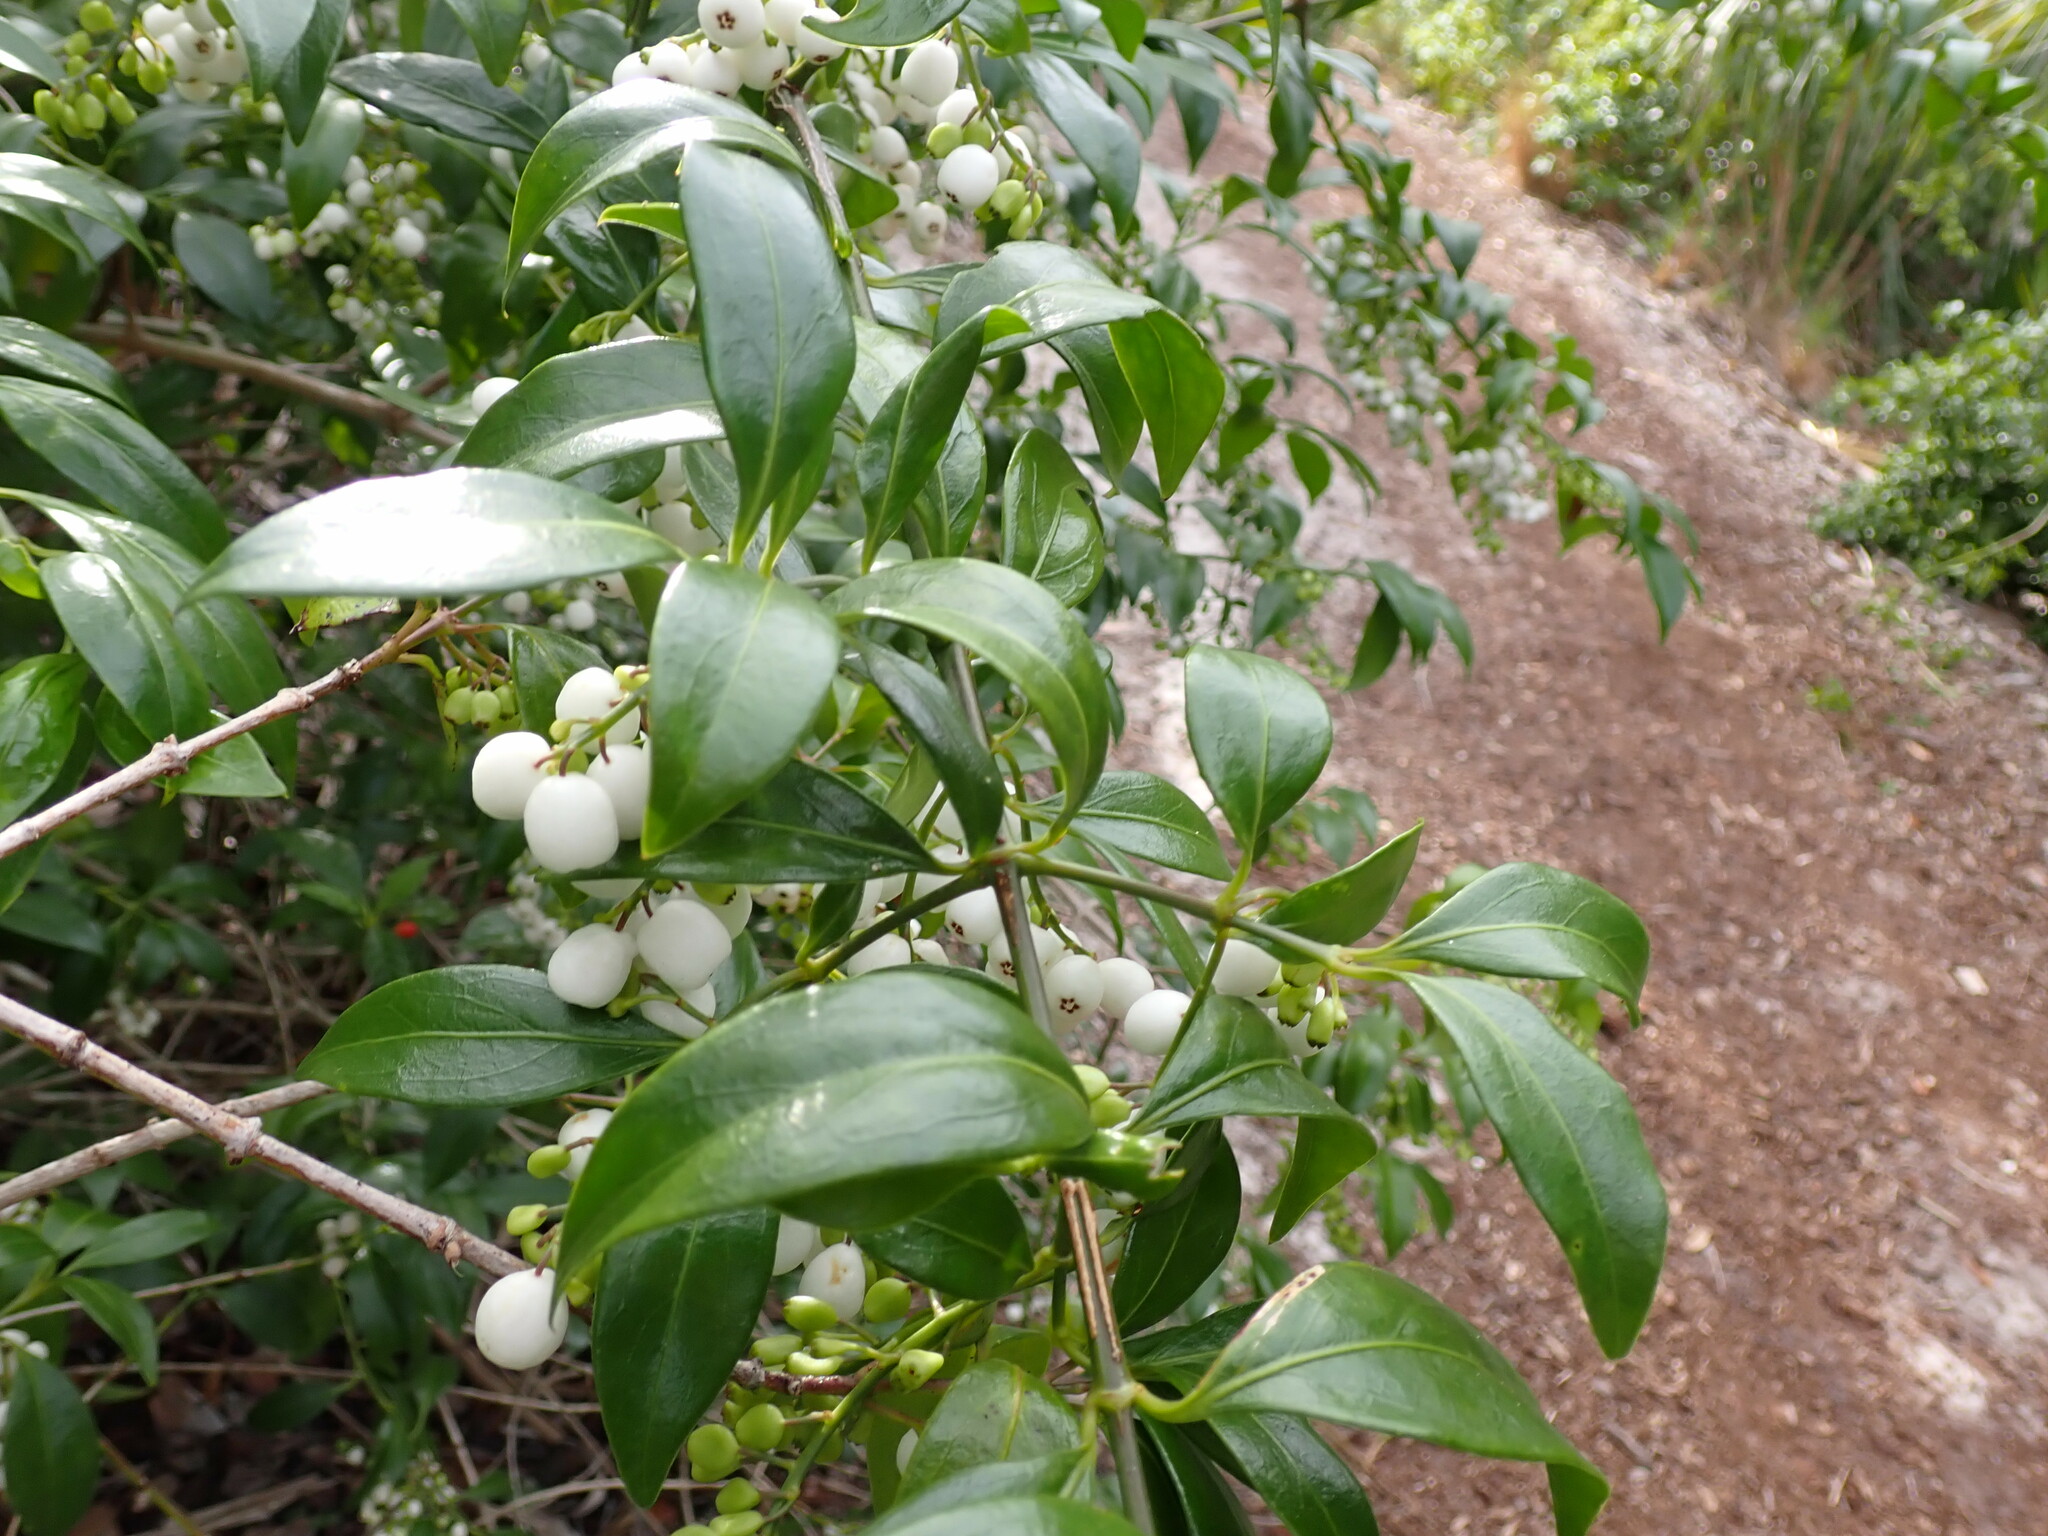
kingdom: Plantae
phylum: Tracheophyta
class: Magnoliopsida
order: Gentianales
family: Rubiaceae
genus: Chiococca
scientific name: Chiococca alba
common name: Snowberry
